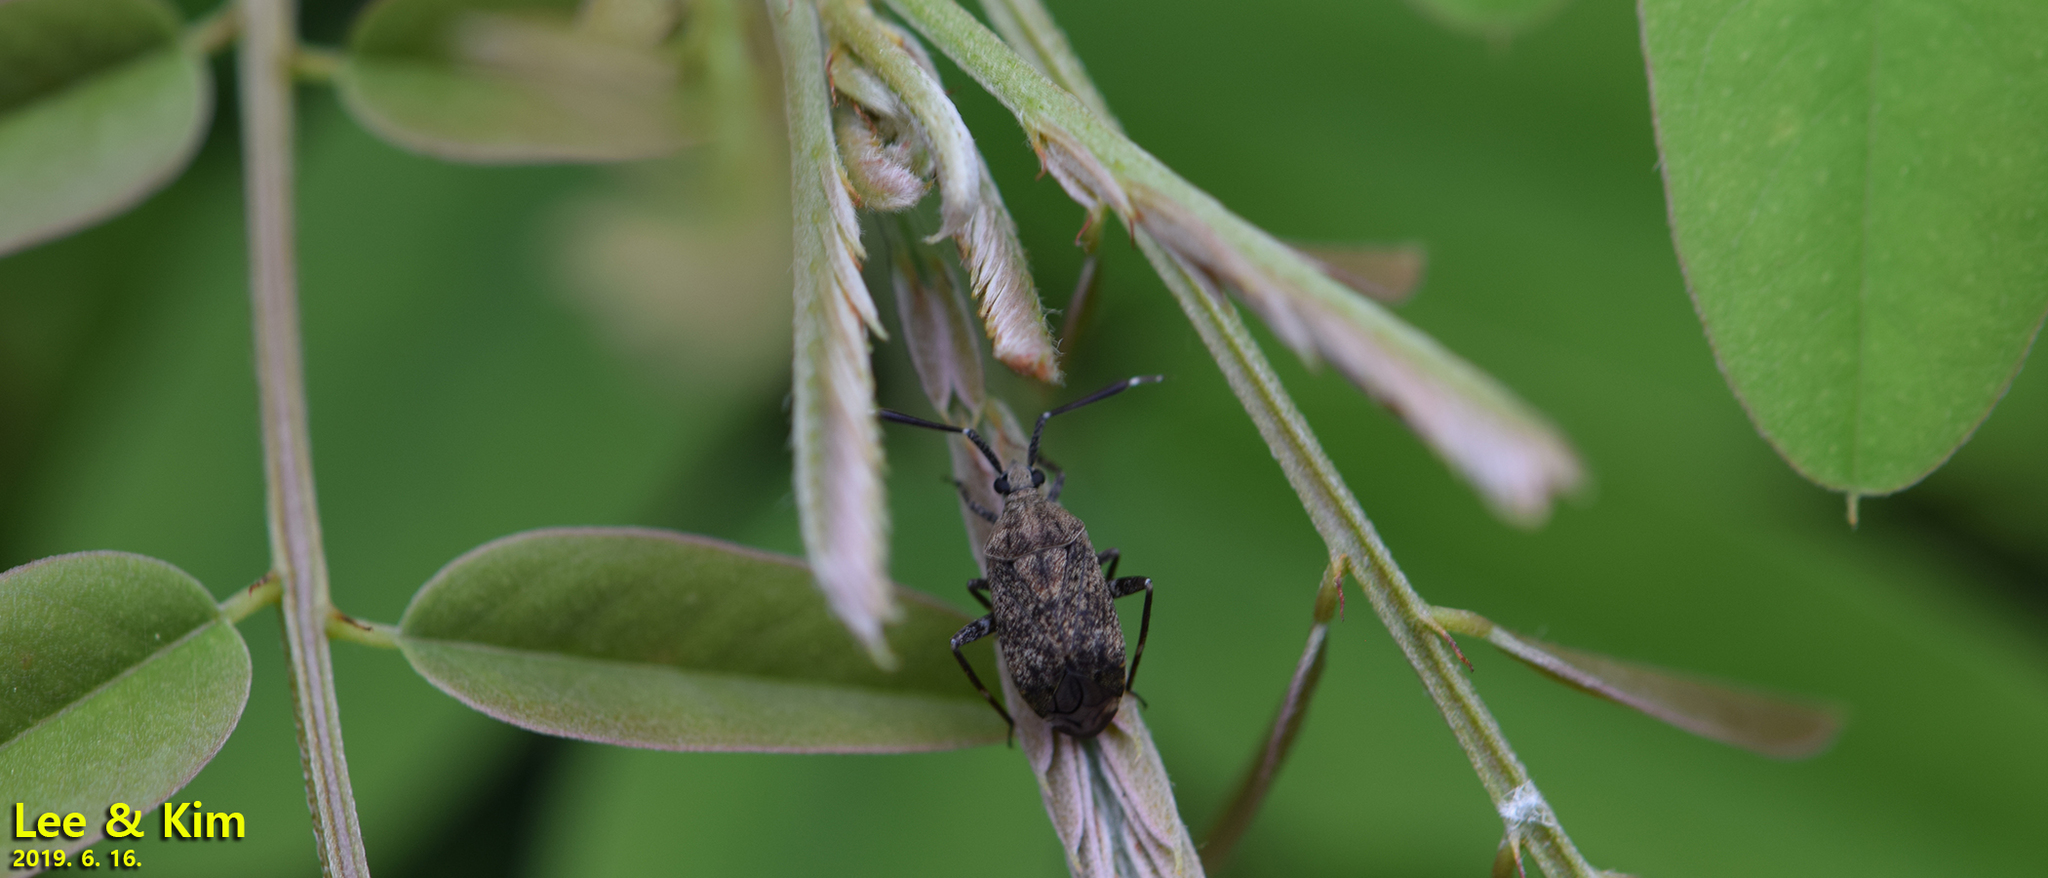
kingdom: Animalia
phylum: Arthropoda
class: Insecta
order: Hemiptera
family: Miridae
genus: Eurystylus
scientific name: Eurystylus sauteri
